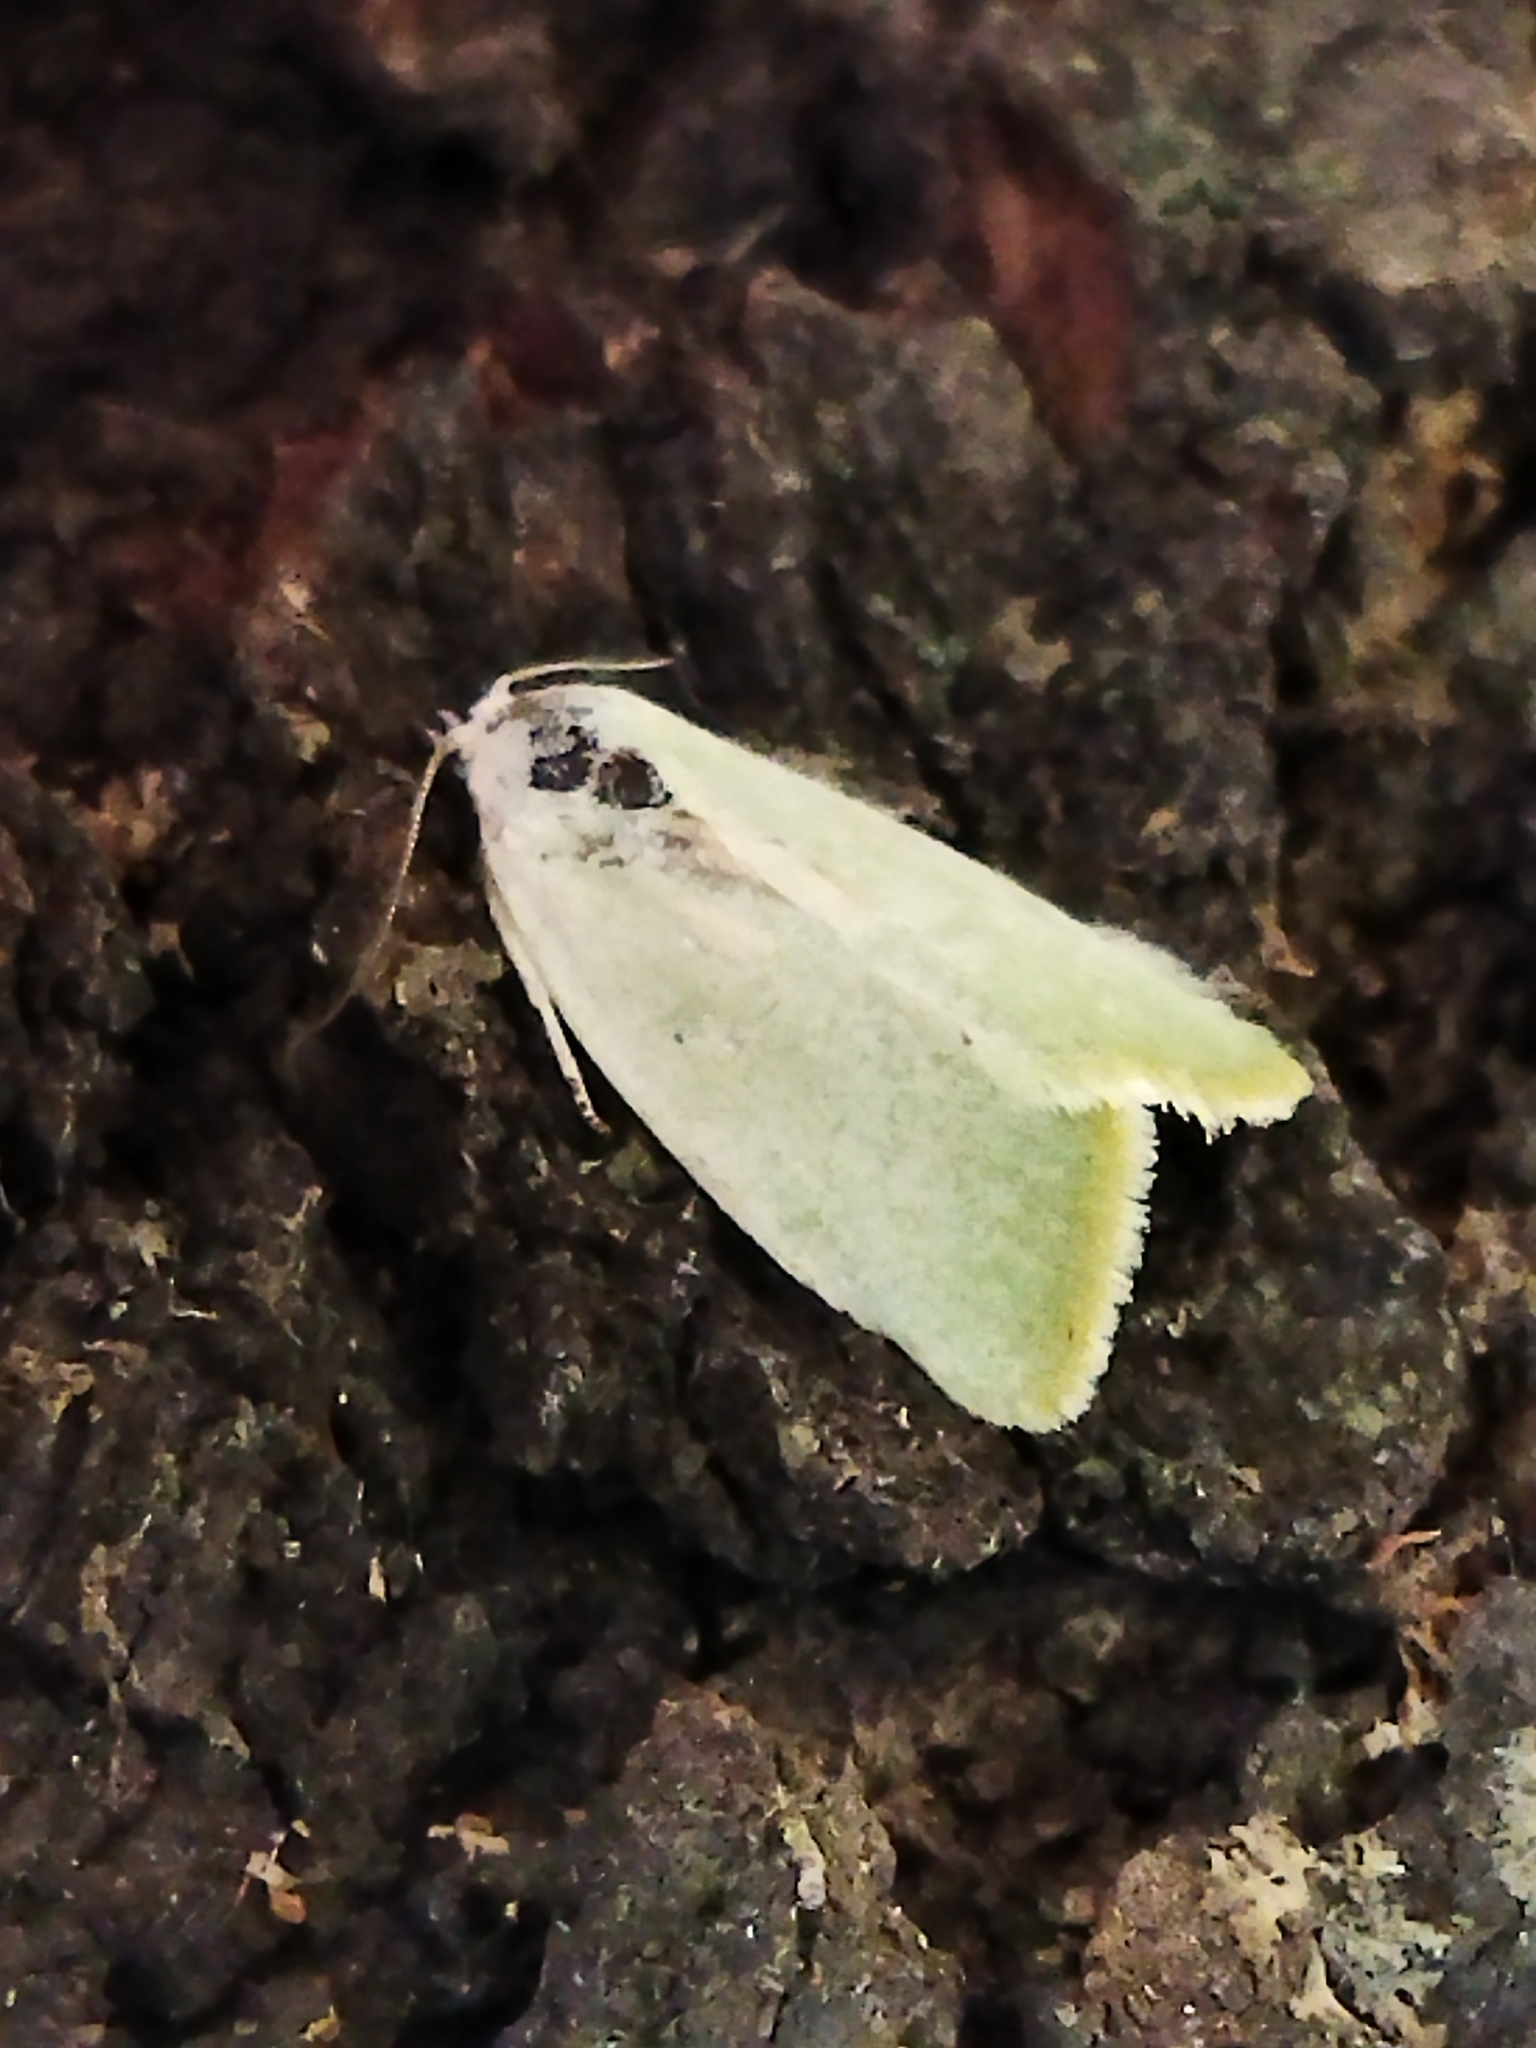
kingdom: Animalia
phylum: Arthropoda
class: Insecta
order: Lepidoptera
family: Nolidae
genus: Earias
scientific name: Earias vernana
